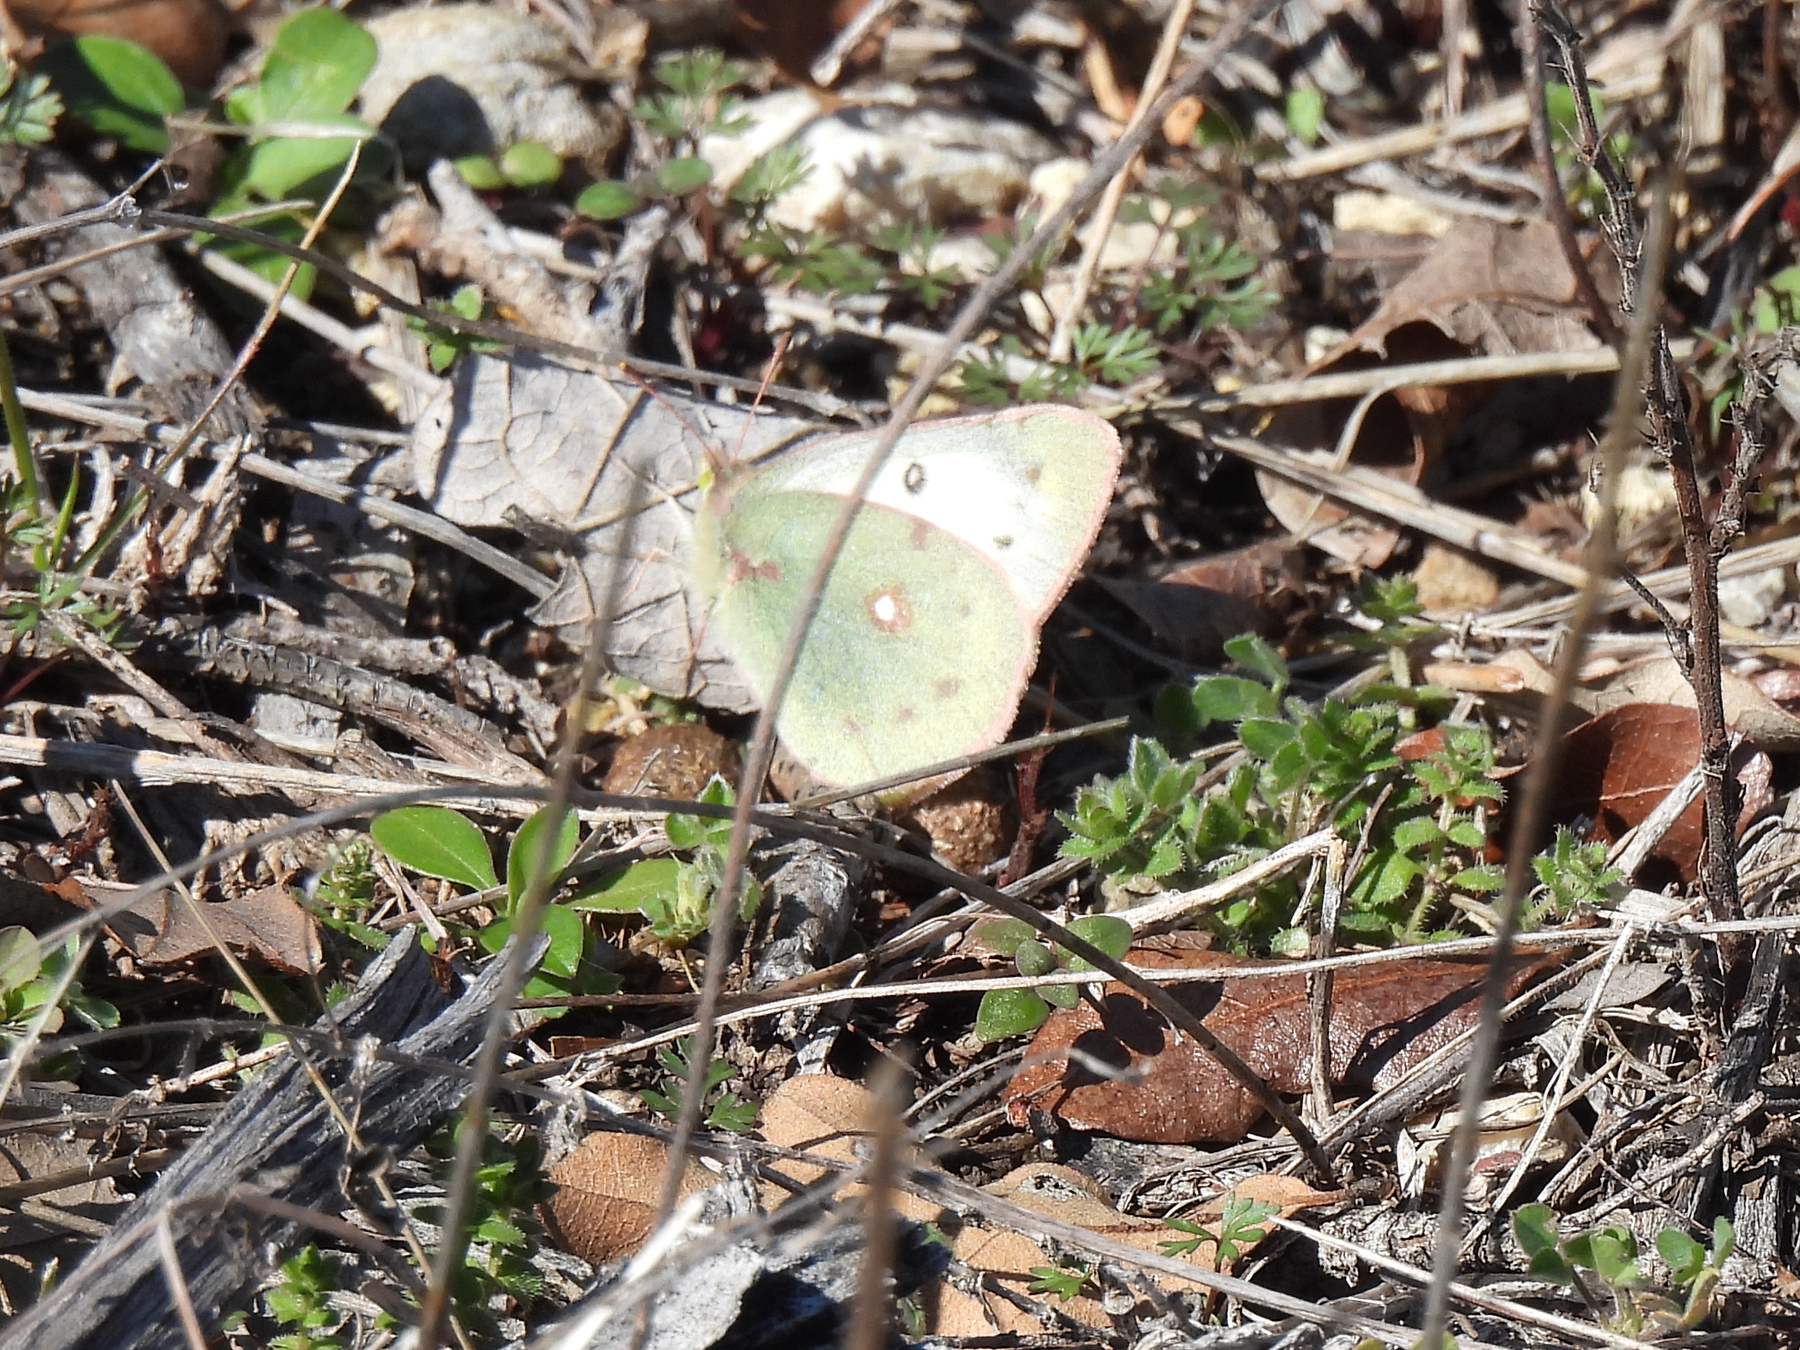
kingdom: Animalia
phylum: Arthropoda
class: Insecta
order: Lepidoptera
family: Pieridae
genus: Colias
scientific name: Colias eurytheme
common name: Alfalfa butterfly
